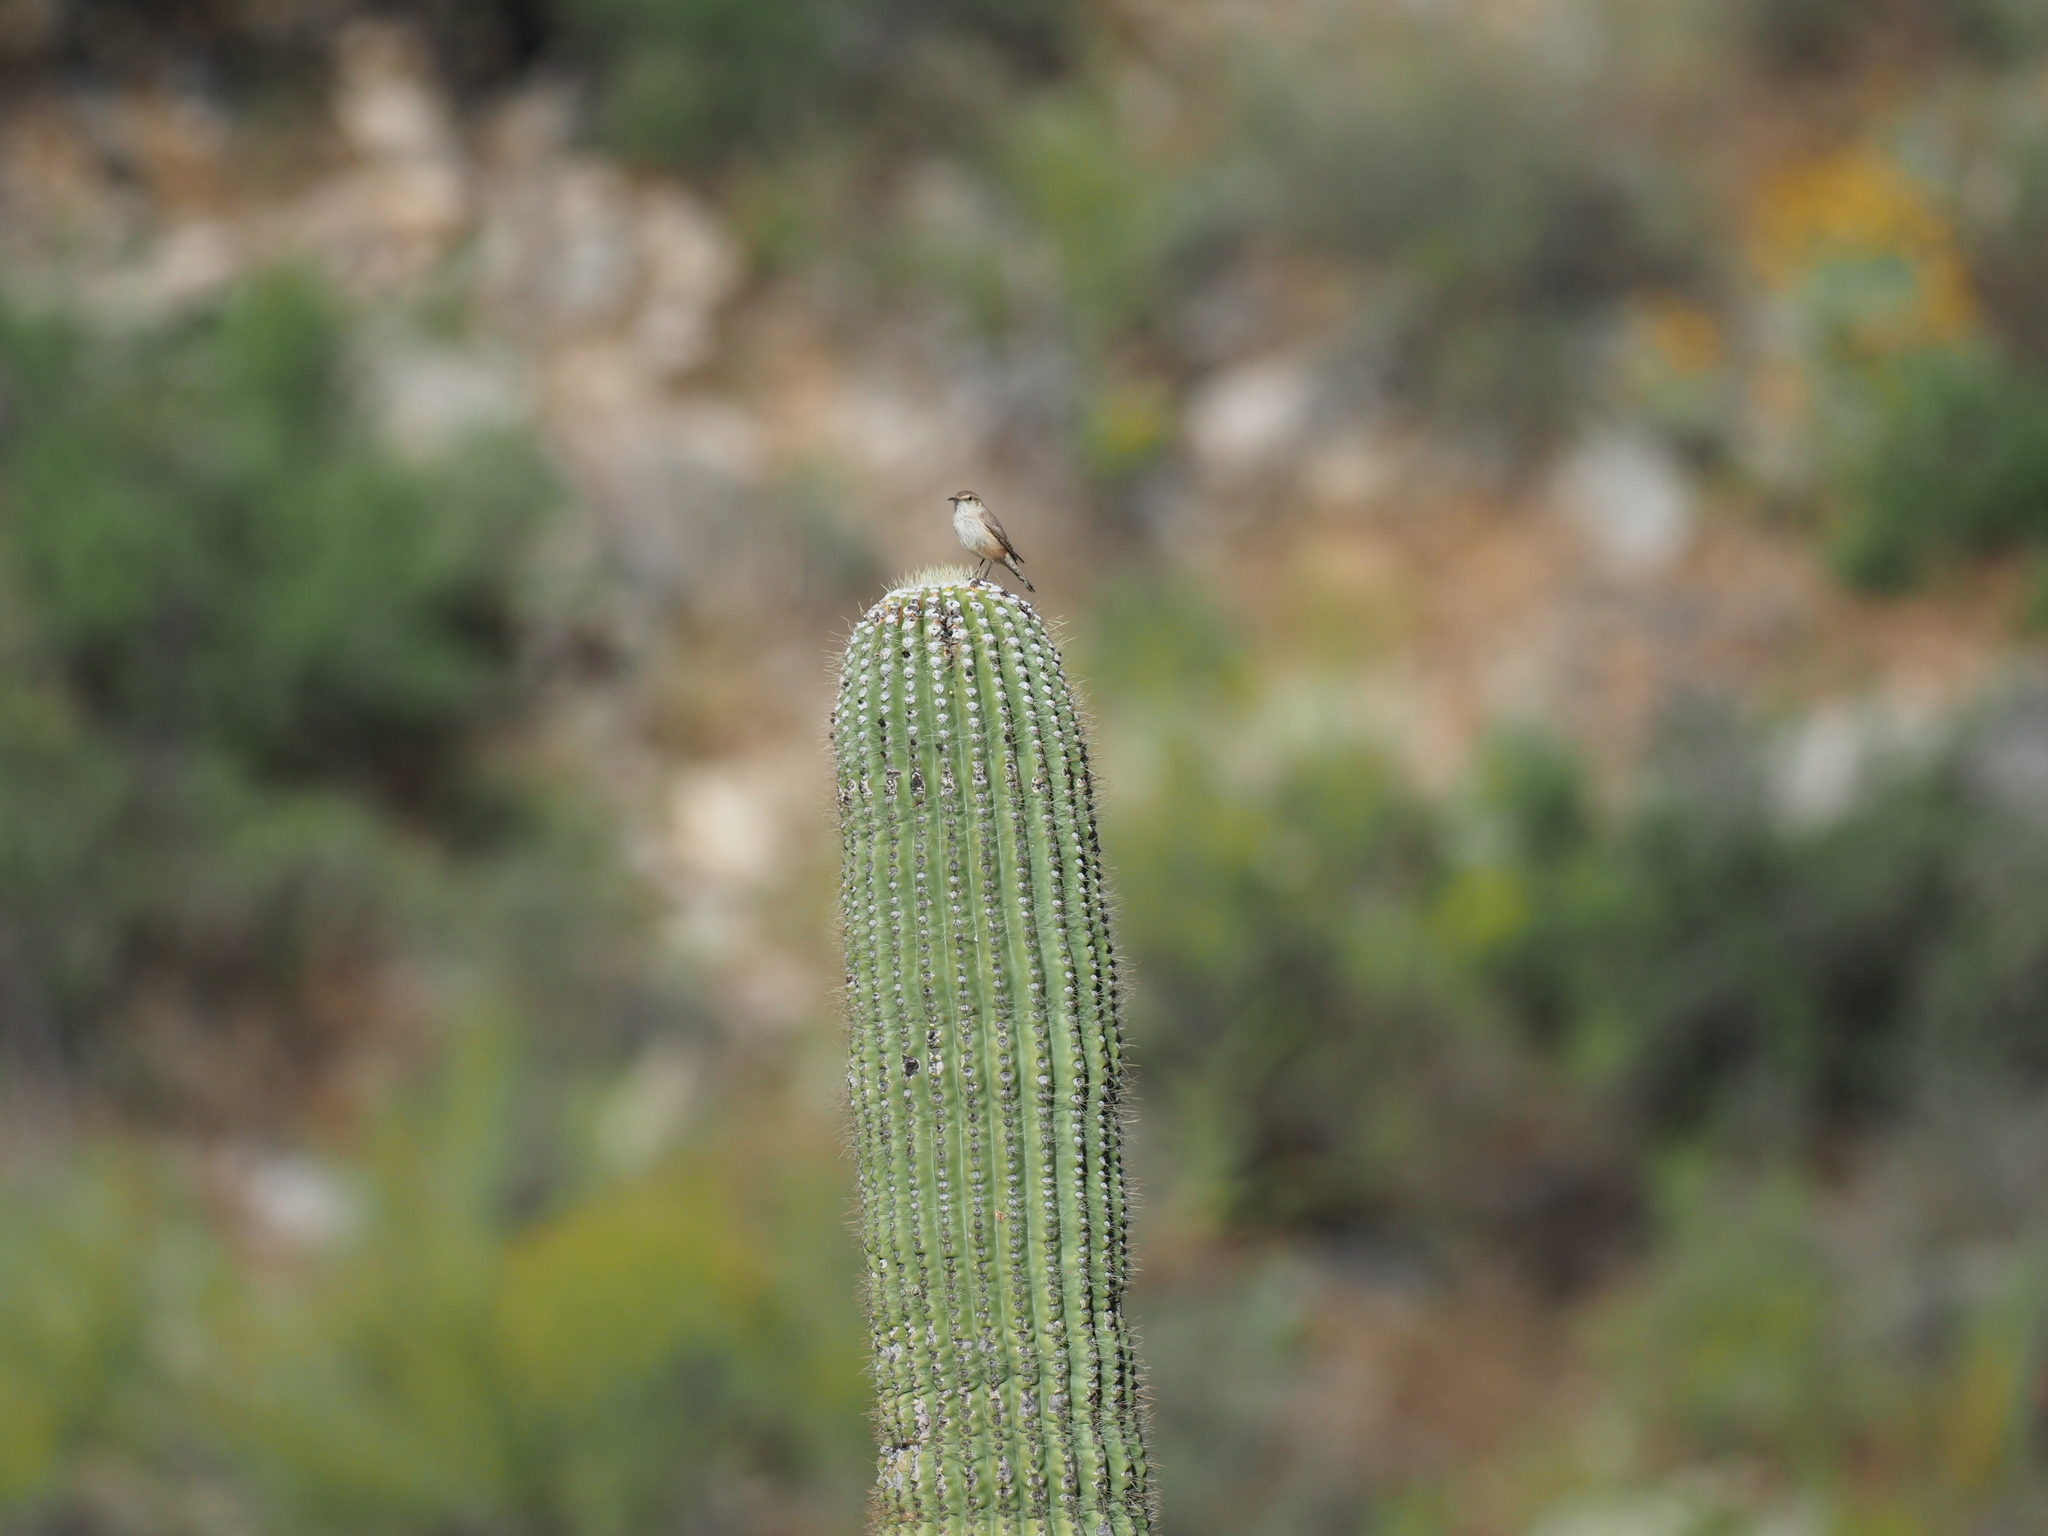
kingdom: Animalia
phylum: Chordata
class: Aves
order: Passeriformes
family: Troglodytidae
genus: Salpinctes
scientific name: Salpinctes obsoletus
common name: Rock wren
